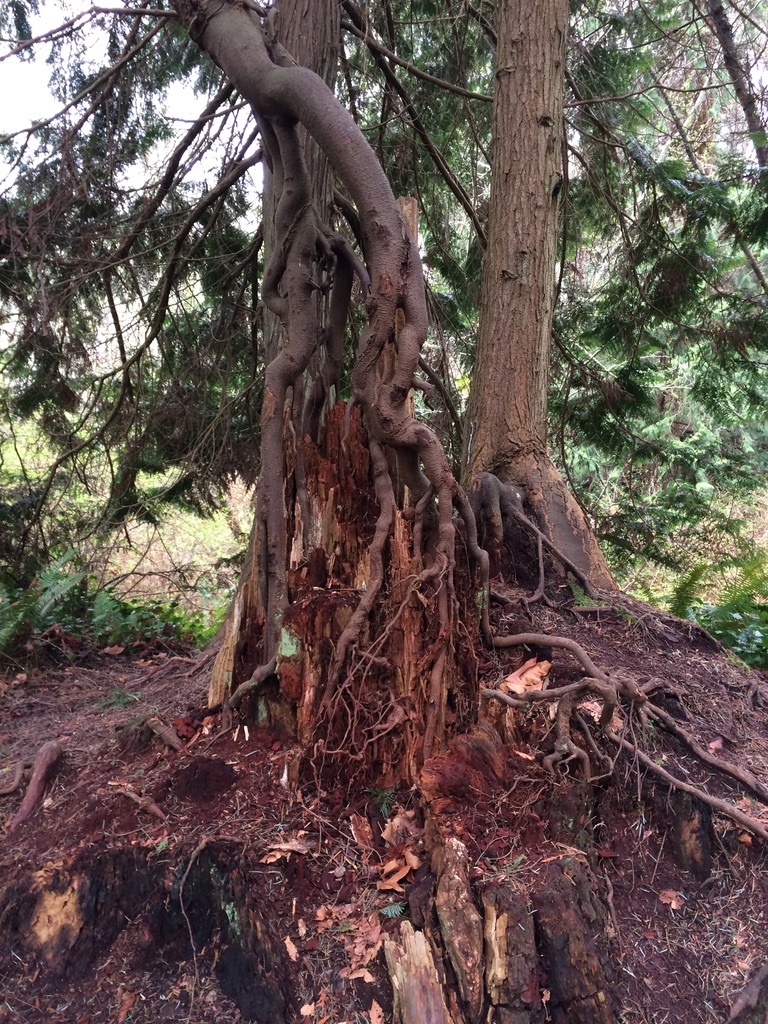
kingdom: Plantae
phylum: Tracheophyta
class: Pinopsida
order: Pinales
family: Cupressaceae
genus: Thuja
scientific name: Thuja plicata
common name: Western red-cedar
